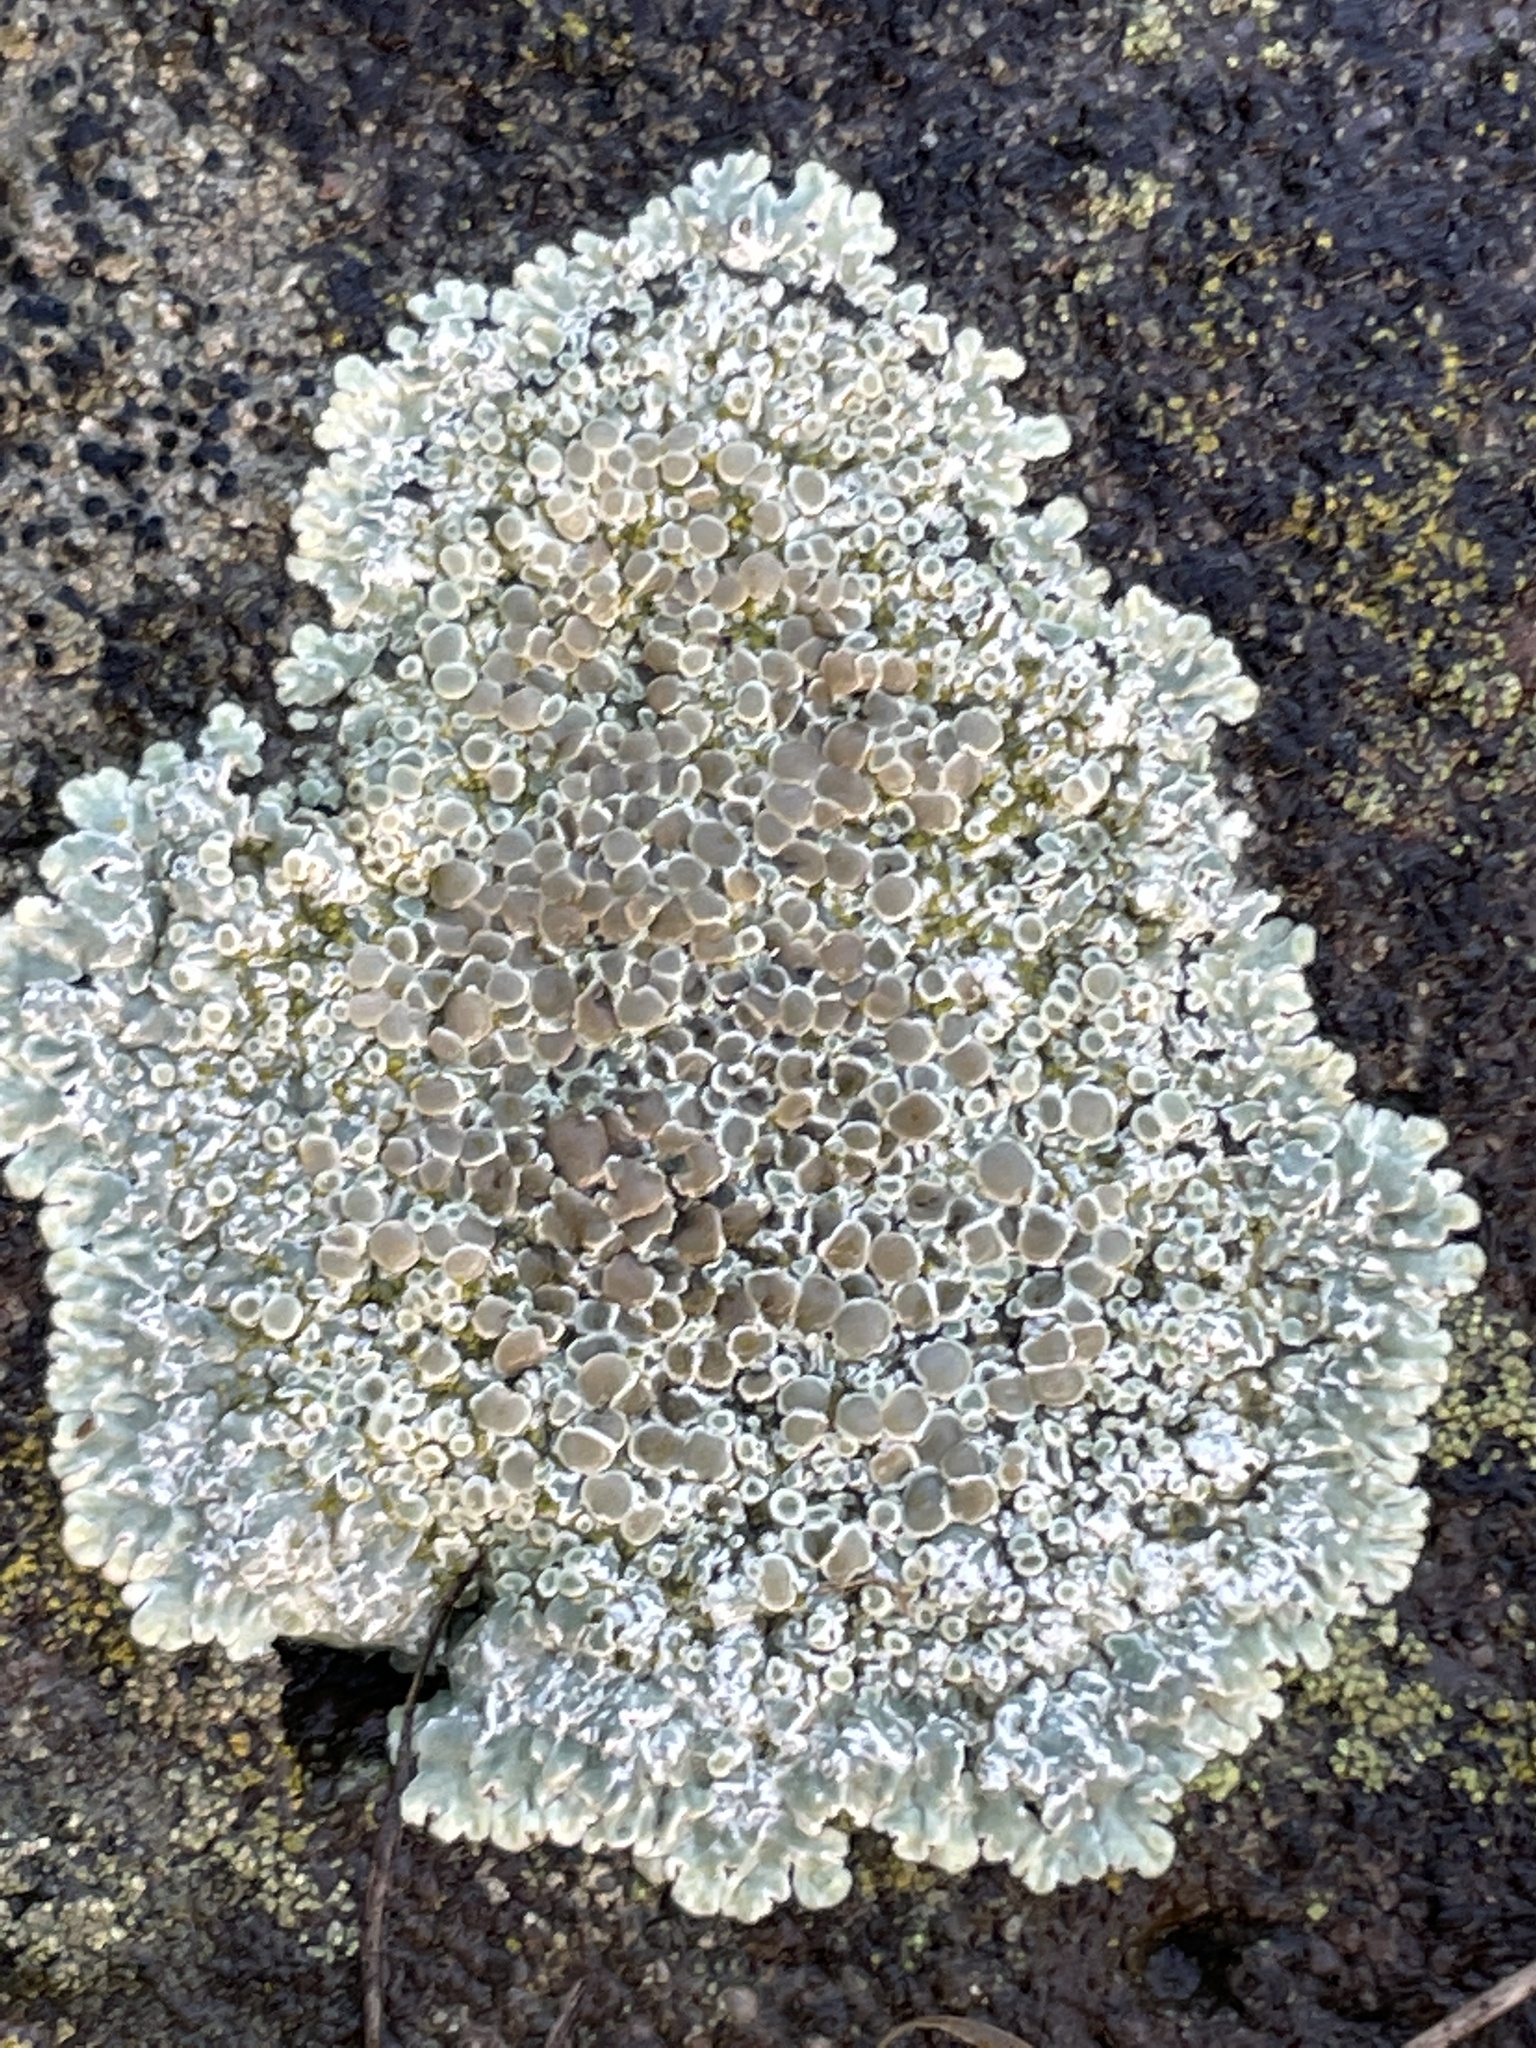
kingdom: Fungi
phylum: Ascomycota
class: Lecanoromycetes
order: Lecanorales
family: Lecanoraceae
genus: Protoparmeliopsis
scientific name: Protoparmeliopsis muralis
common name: Stonewall rim lichen
